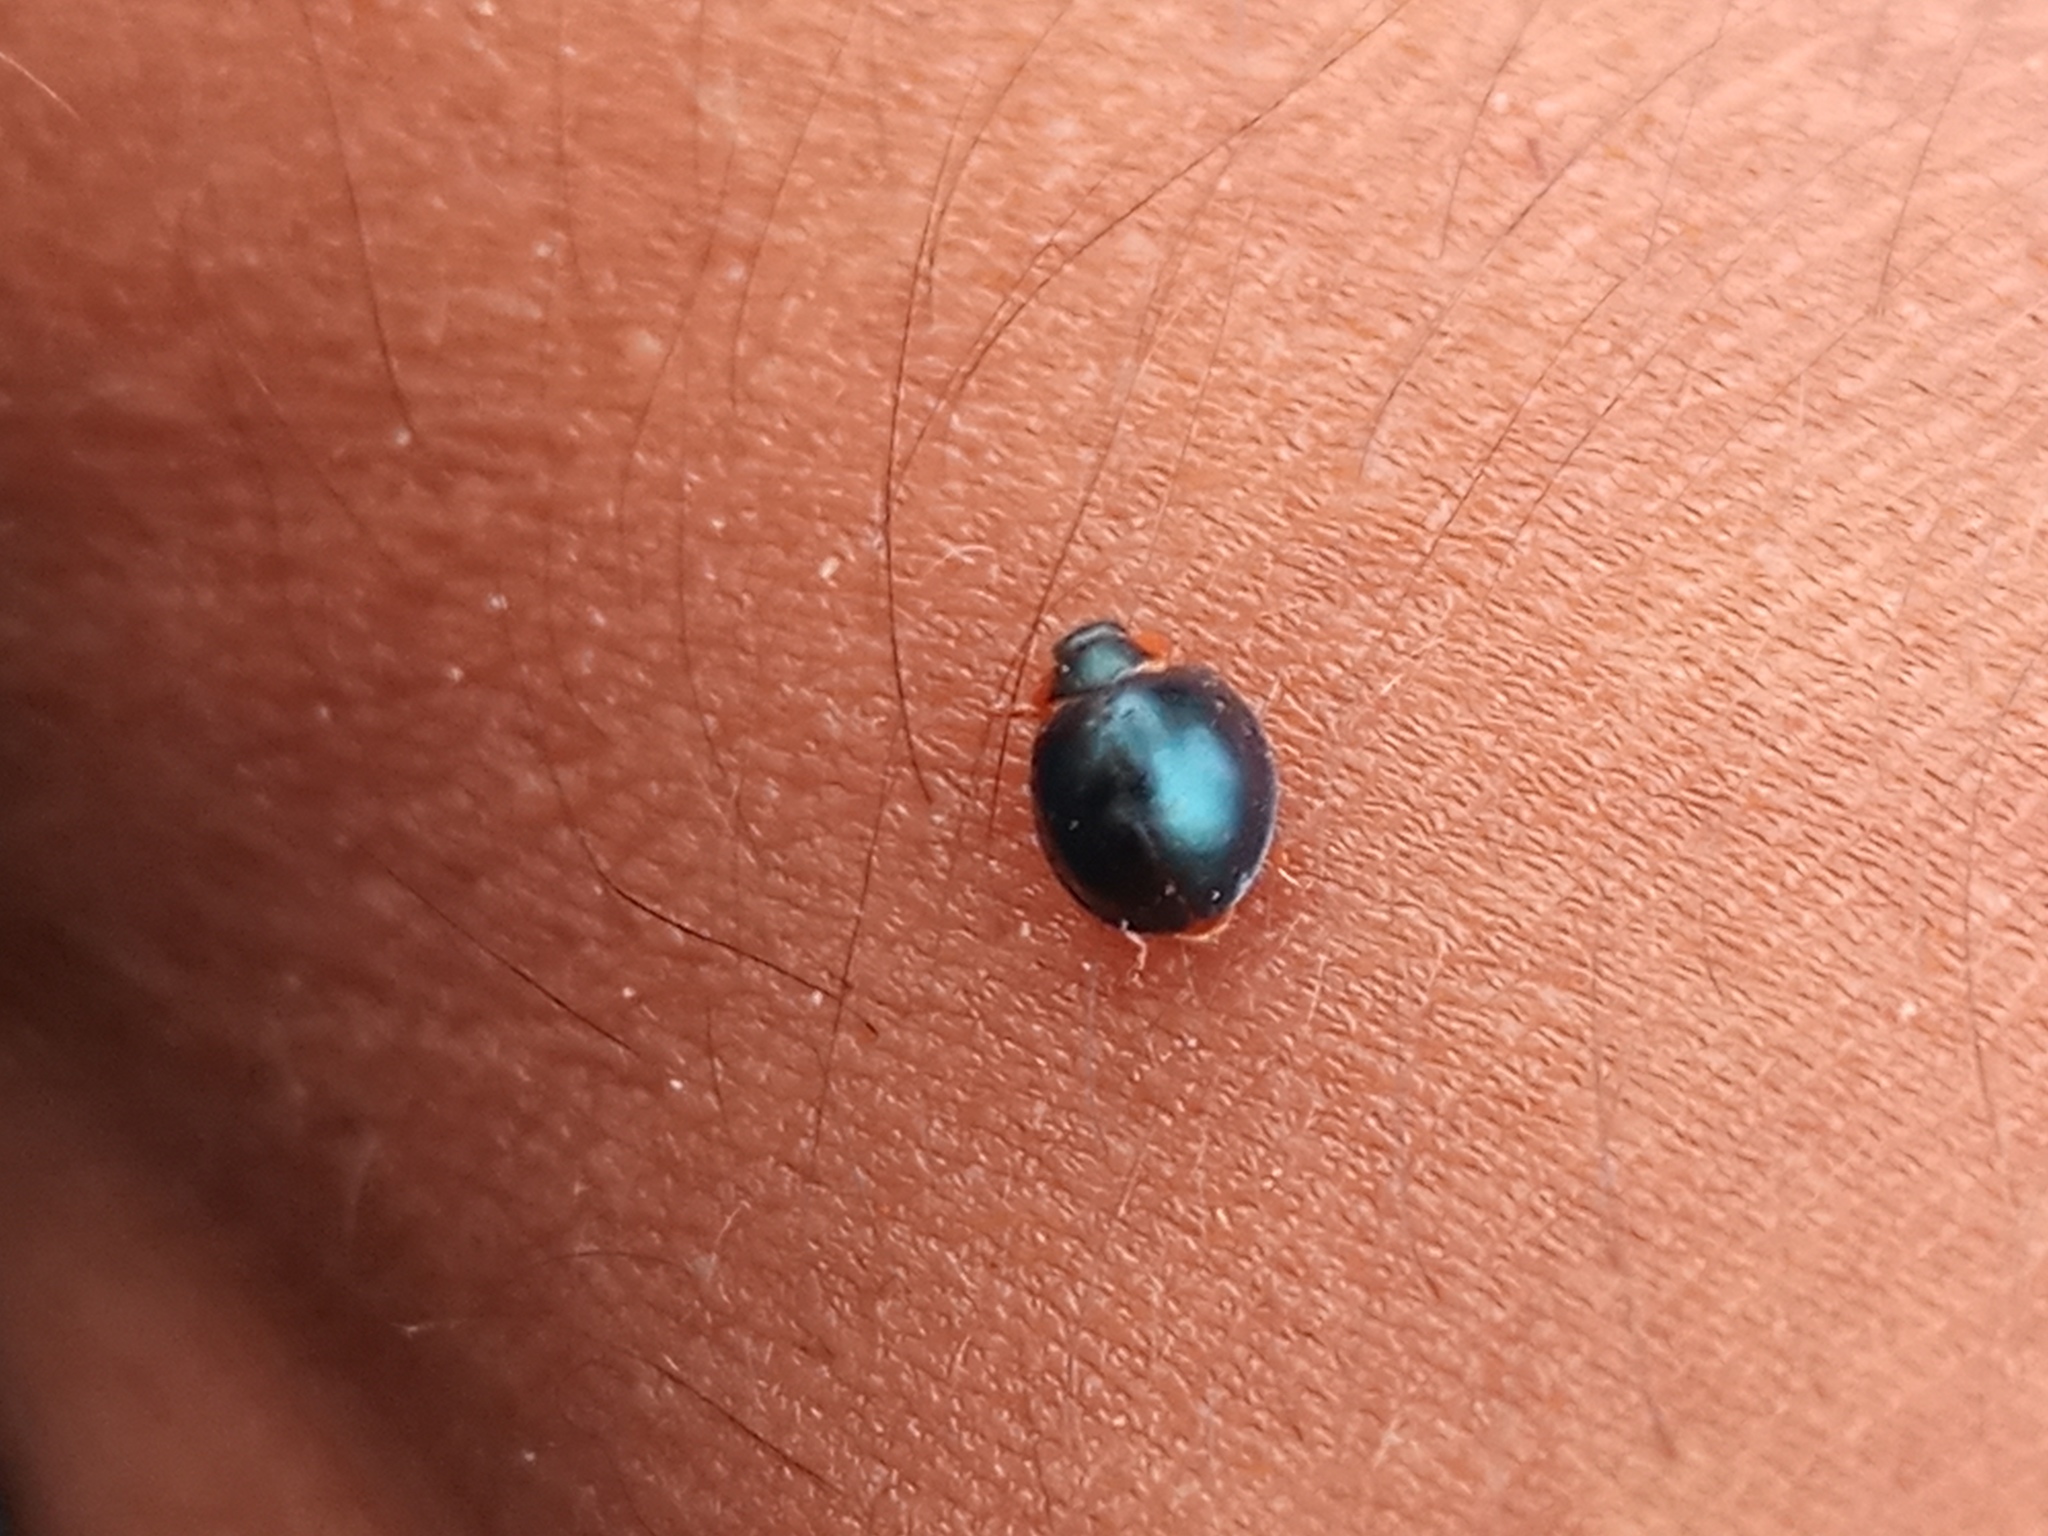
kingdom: Animalia
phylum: Arthropoda
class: Insecta
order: Coleoptera
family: Coccinellidae
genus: Curinus
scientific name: Curinus coeruleus
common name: Ladybird beetle
